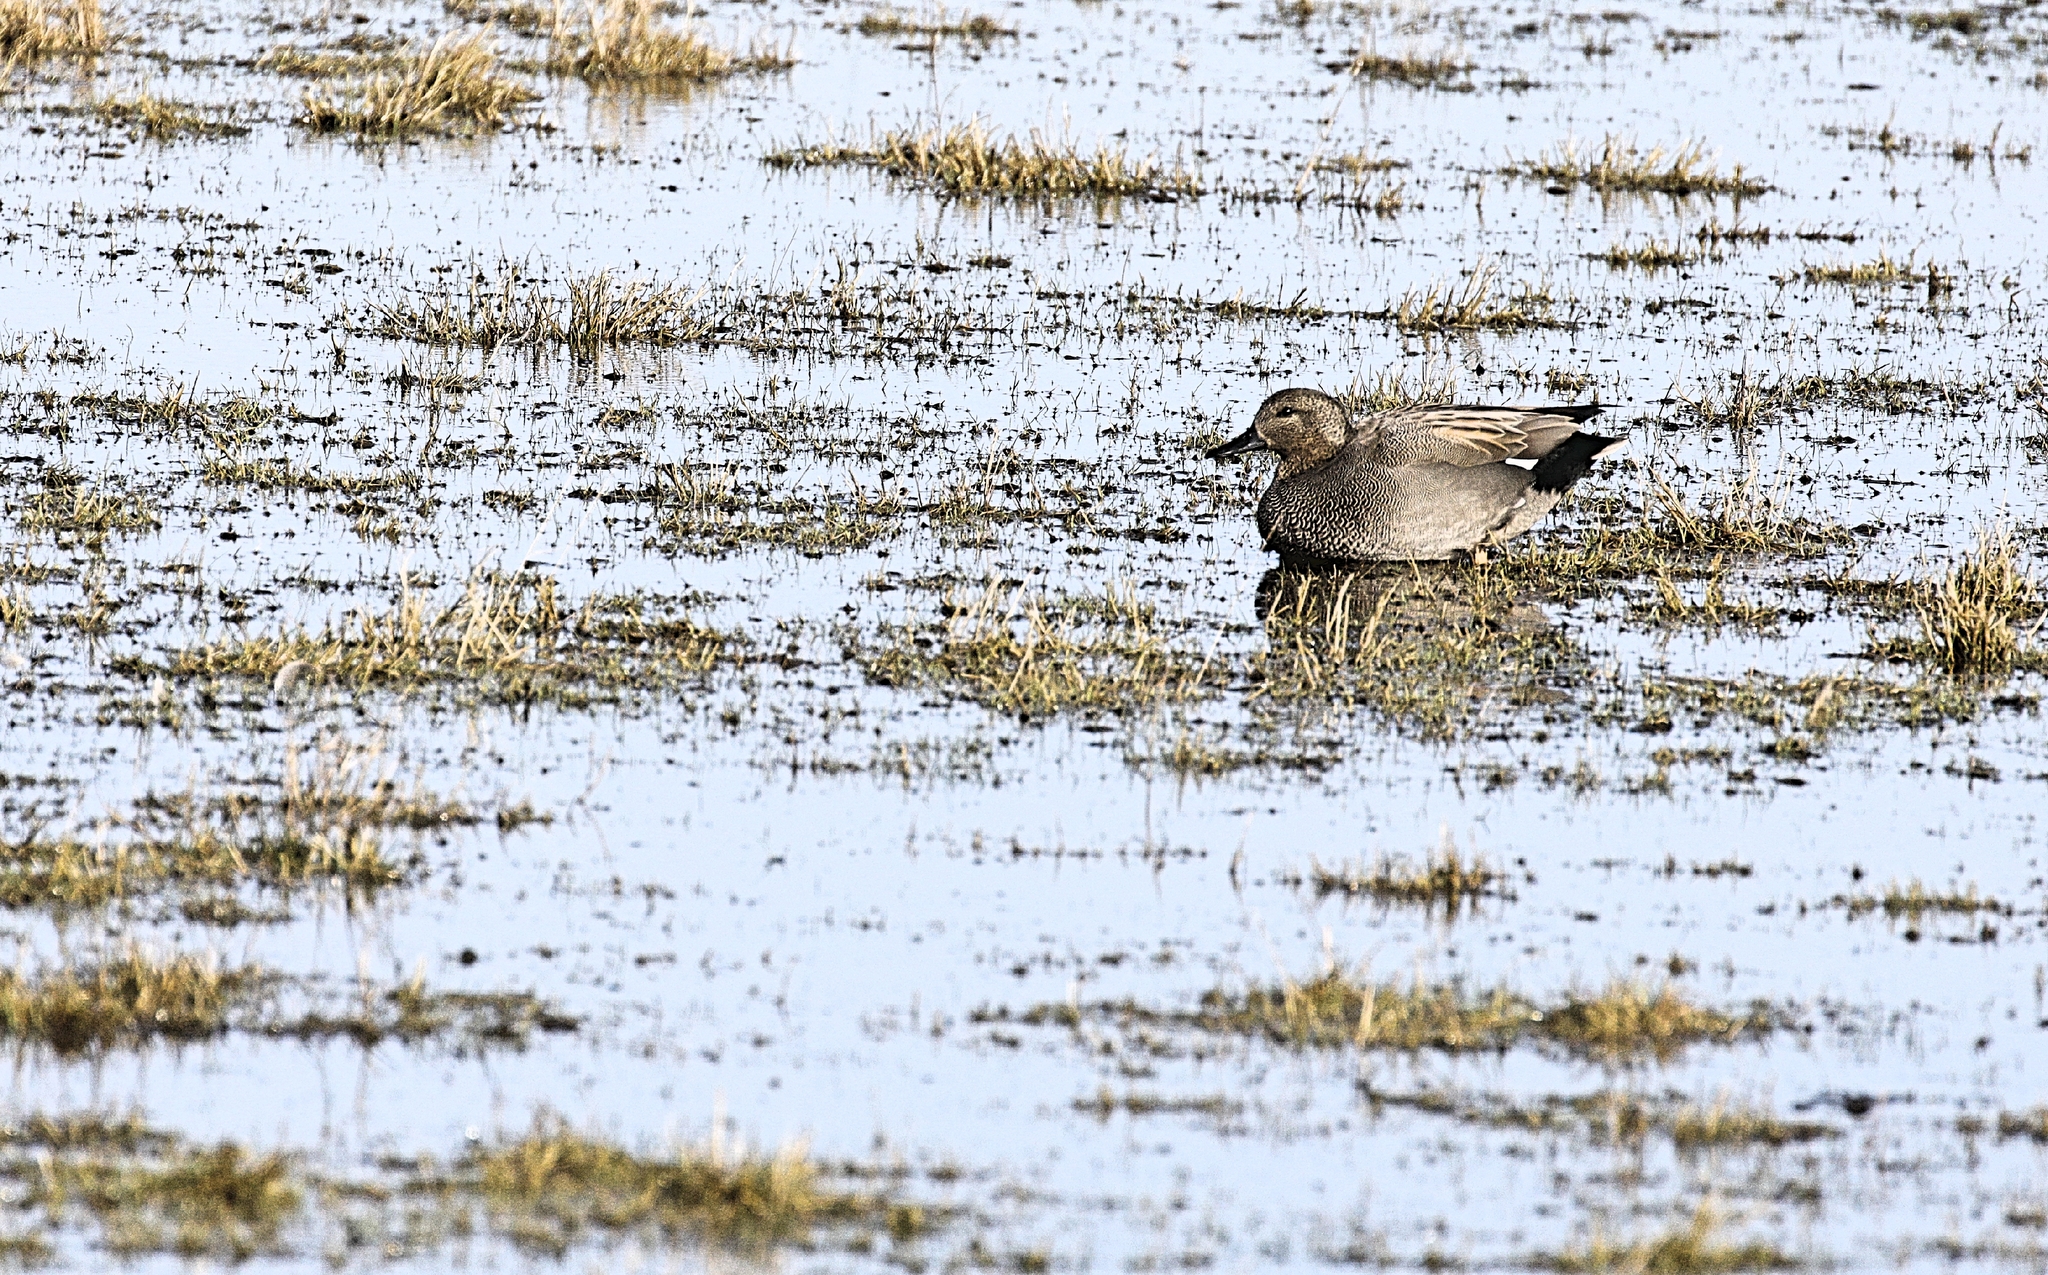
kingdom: Animalia
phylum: Chordata
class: Aves
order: Anseriformes
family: Anatidae
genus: Mareca
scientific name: Mareca strepera
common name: Gadwall
